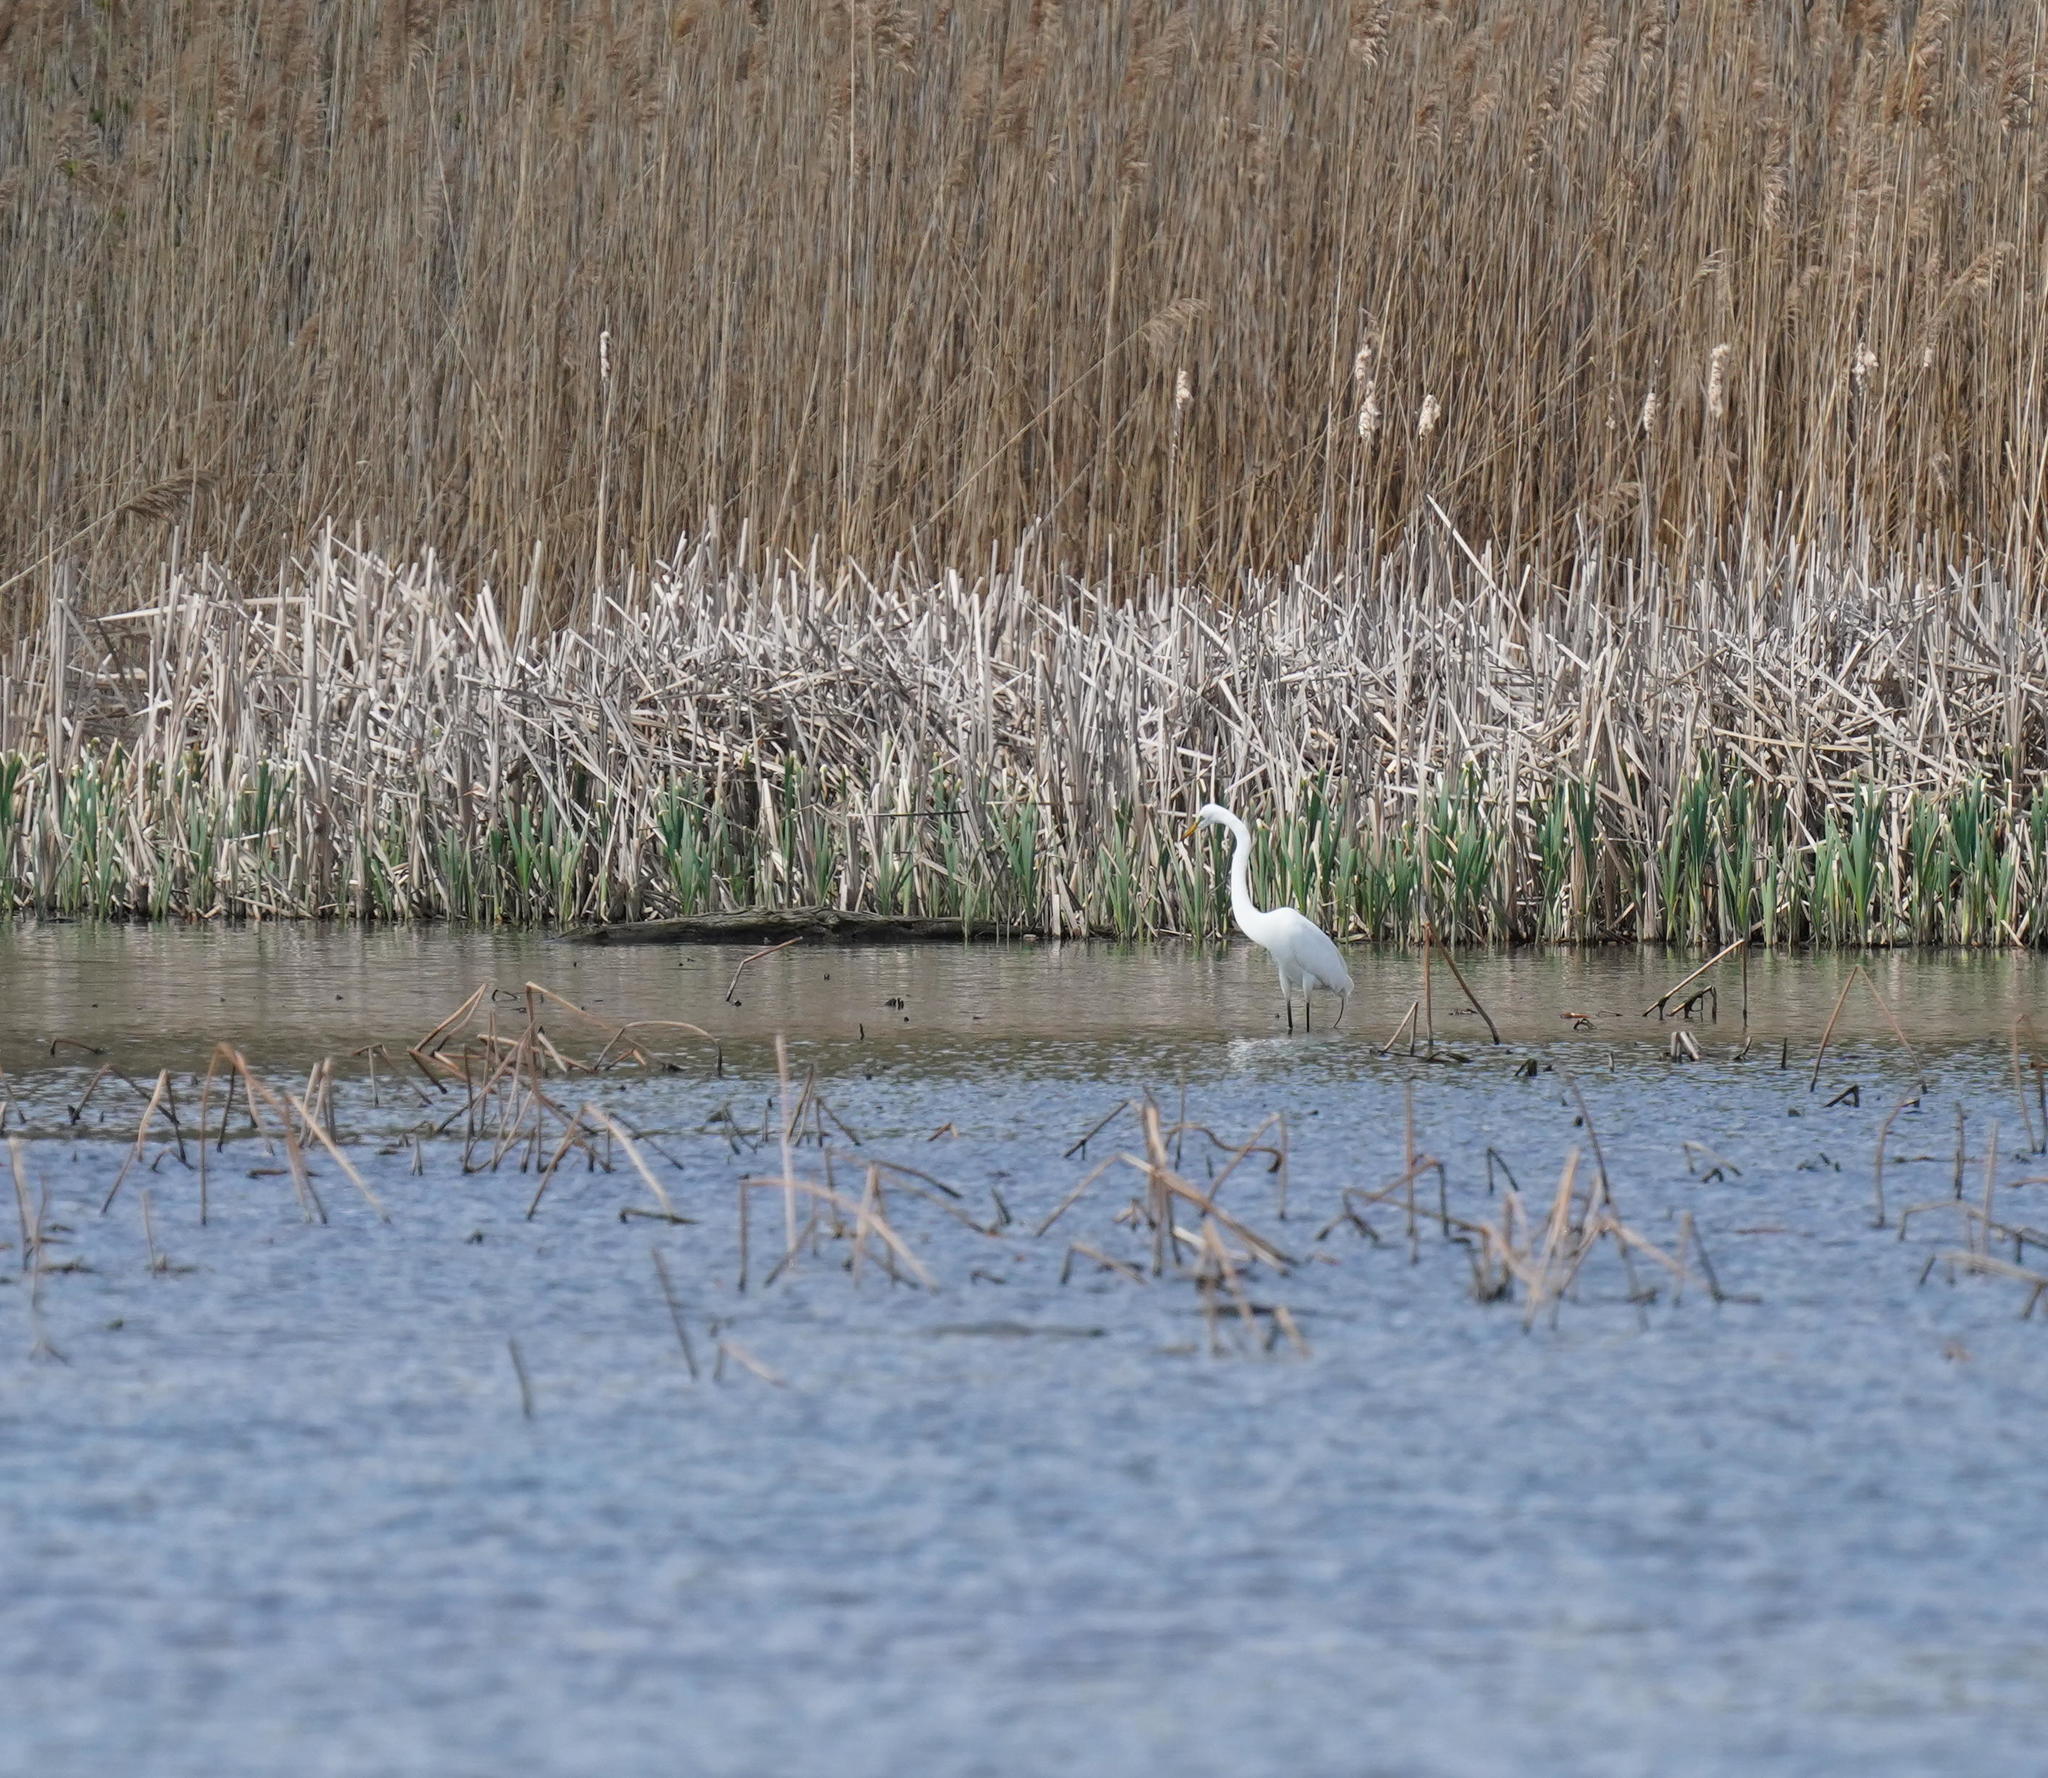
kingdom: Animalia
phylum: Chordata
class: Aves
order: Pelecaniformes
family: Ardeidae
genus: Ardea
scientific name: Ardea alba
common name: Great egret
